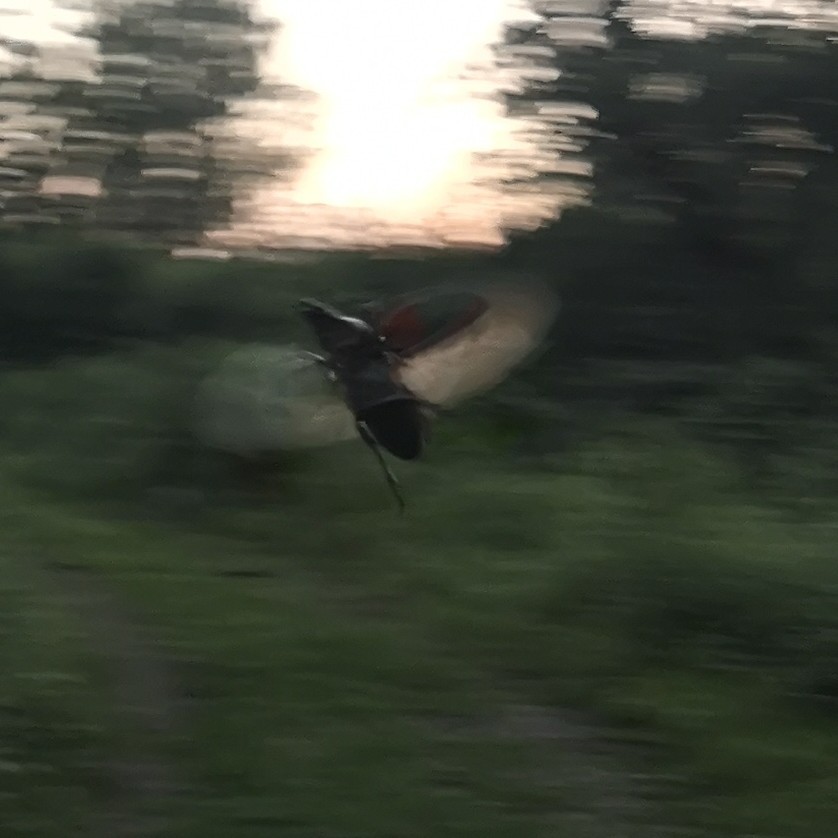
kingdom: Animalia
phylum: Arthropoda
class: Insecta
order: Coleoptera
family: Lucanidae
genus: Lucanus
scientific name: Lucanus cervus
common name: Stag beetle
